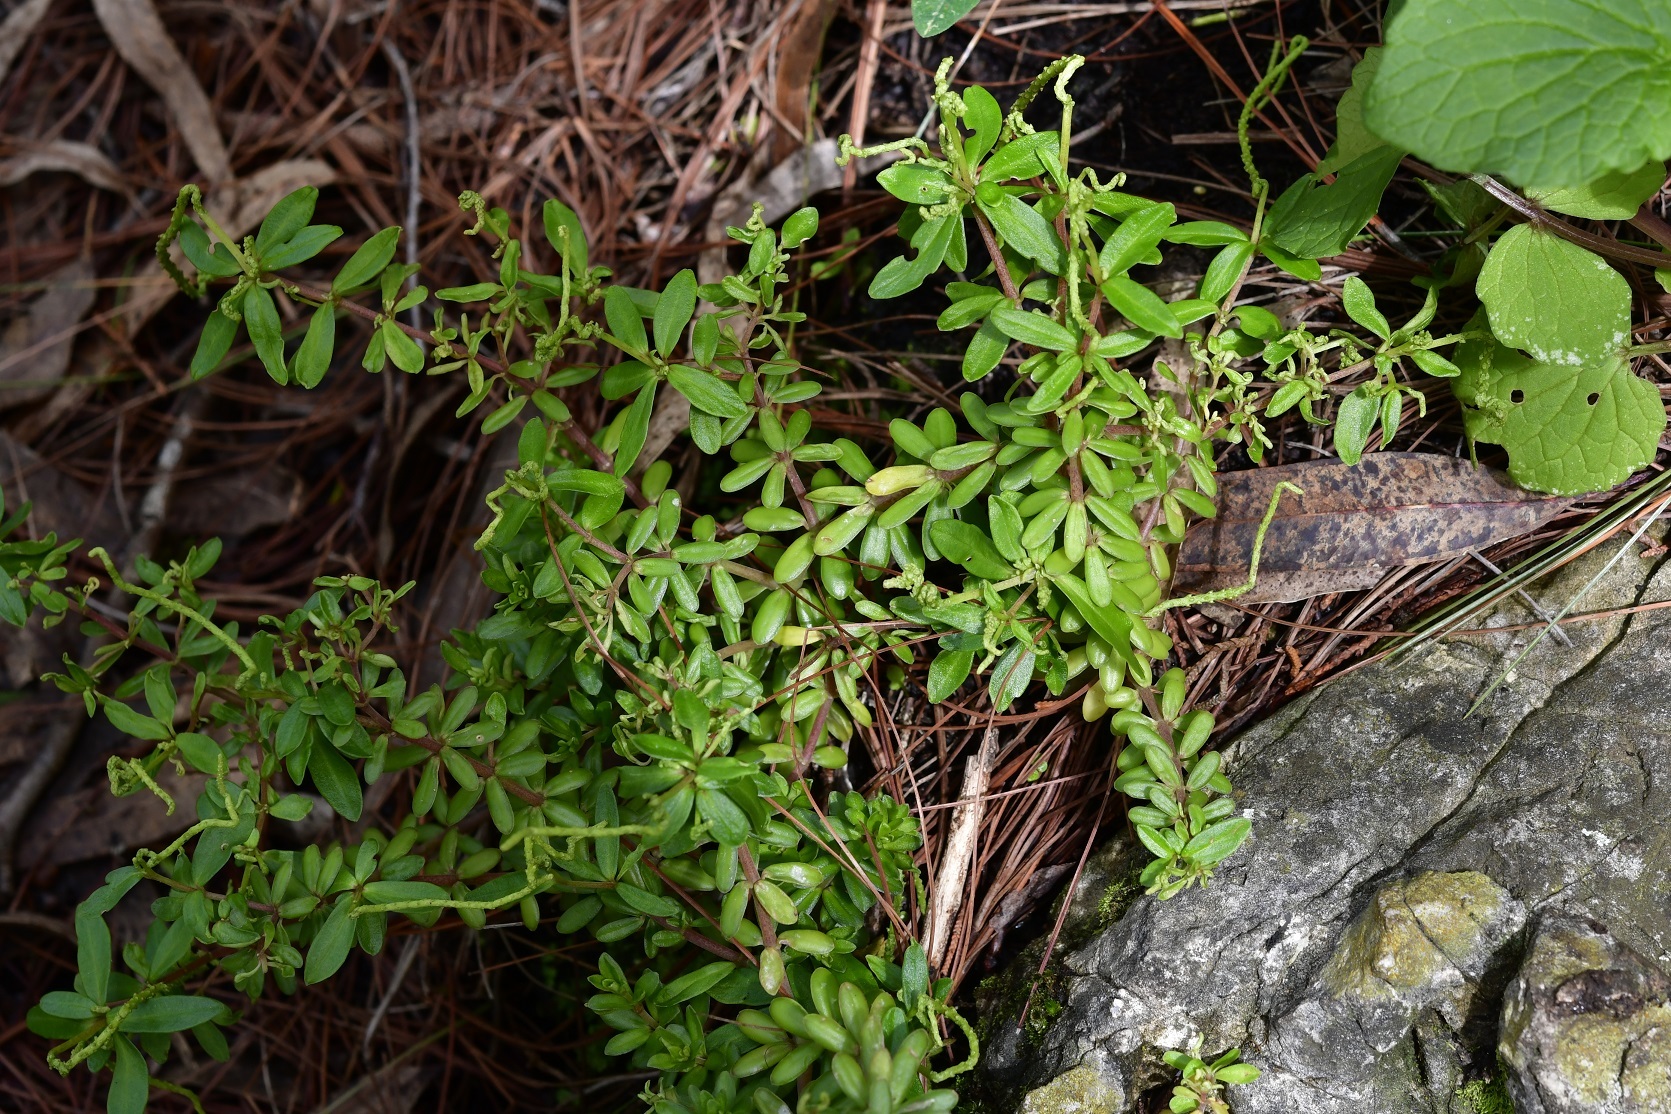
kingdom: Plantae
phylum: Tracheophyta
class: Magnoliopsida
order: Piperales
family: Piperaceae
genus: Peperomia
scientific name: Peperomia galioides
